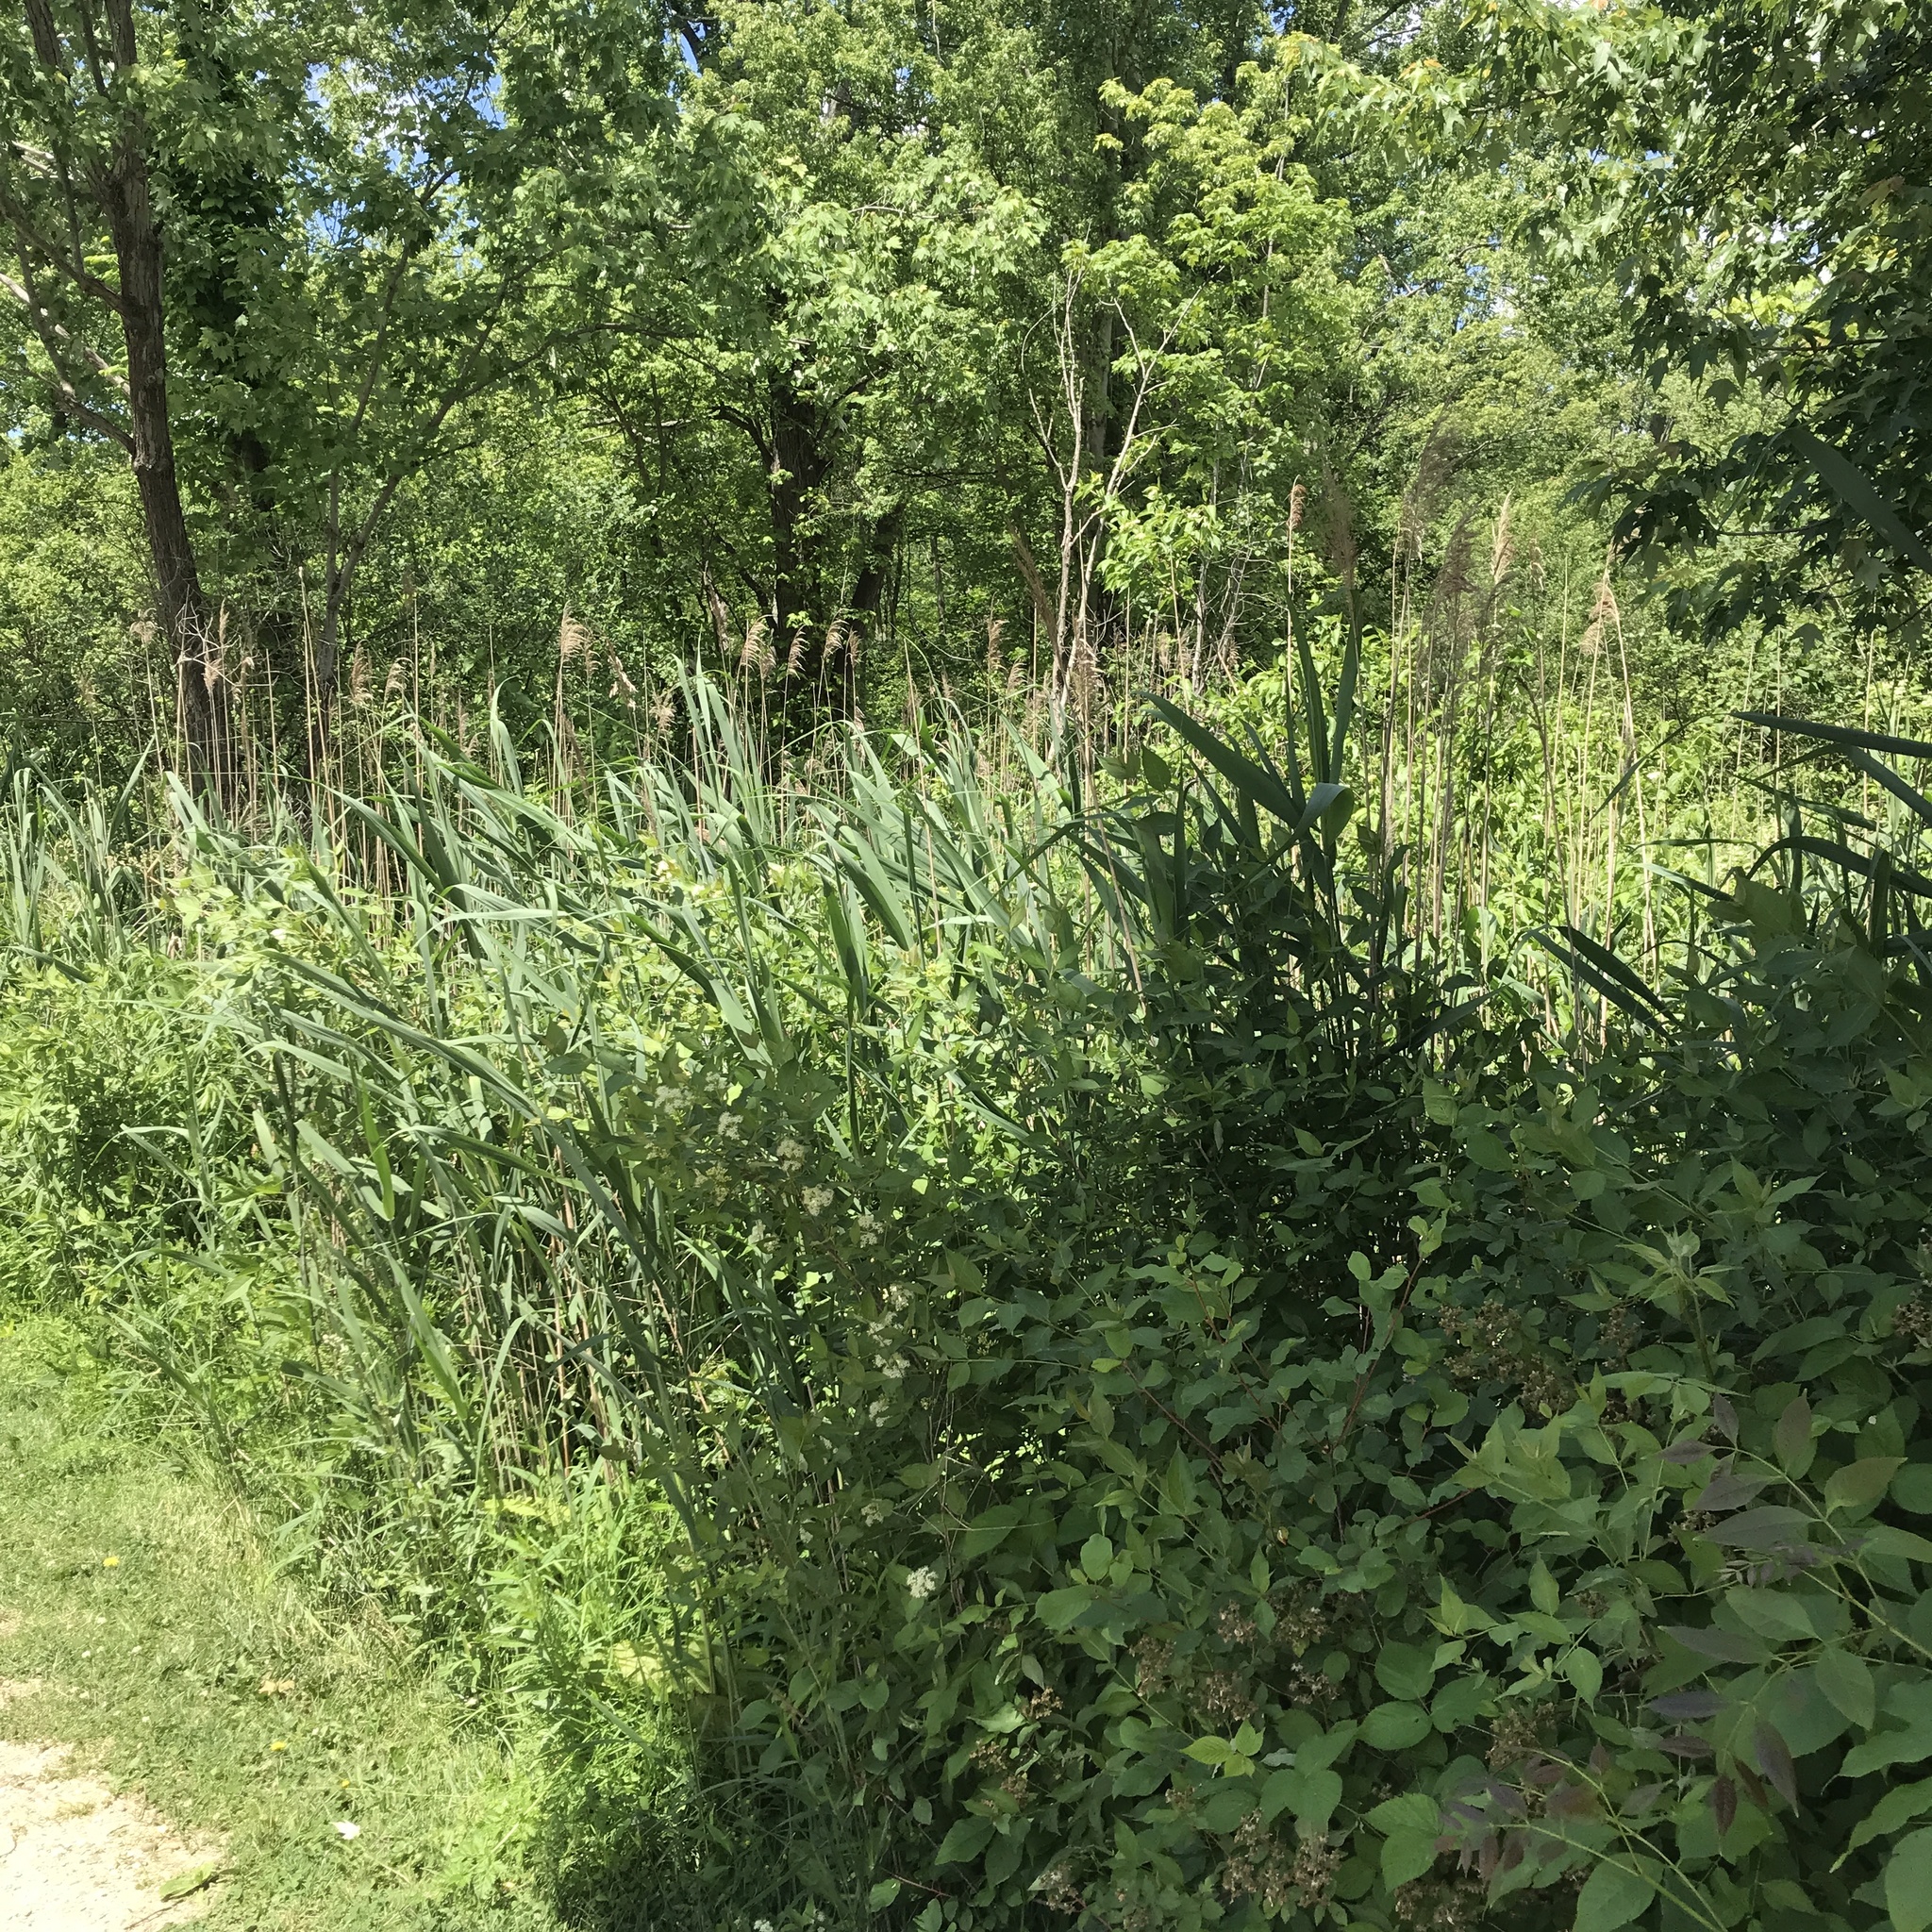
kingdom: Plantae
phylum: Tracheophyta
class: Liliopsida
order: Poales
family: Poaceae
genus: Phragmites
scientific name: Phragmites australis
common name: Common reed
